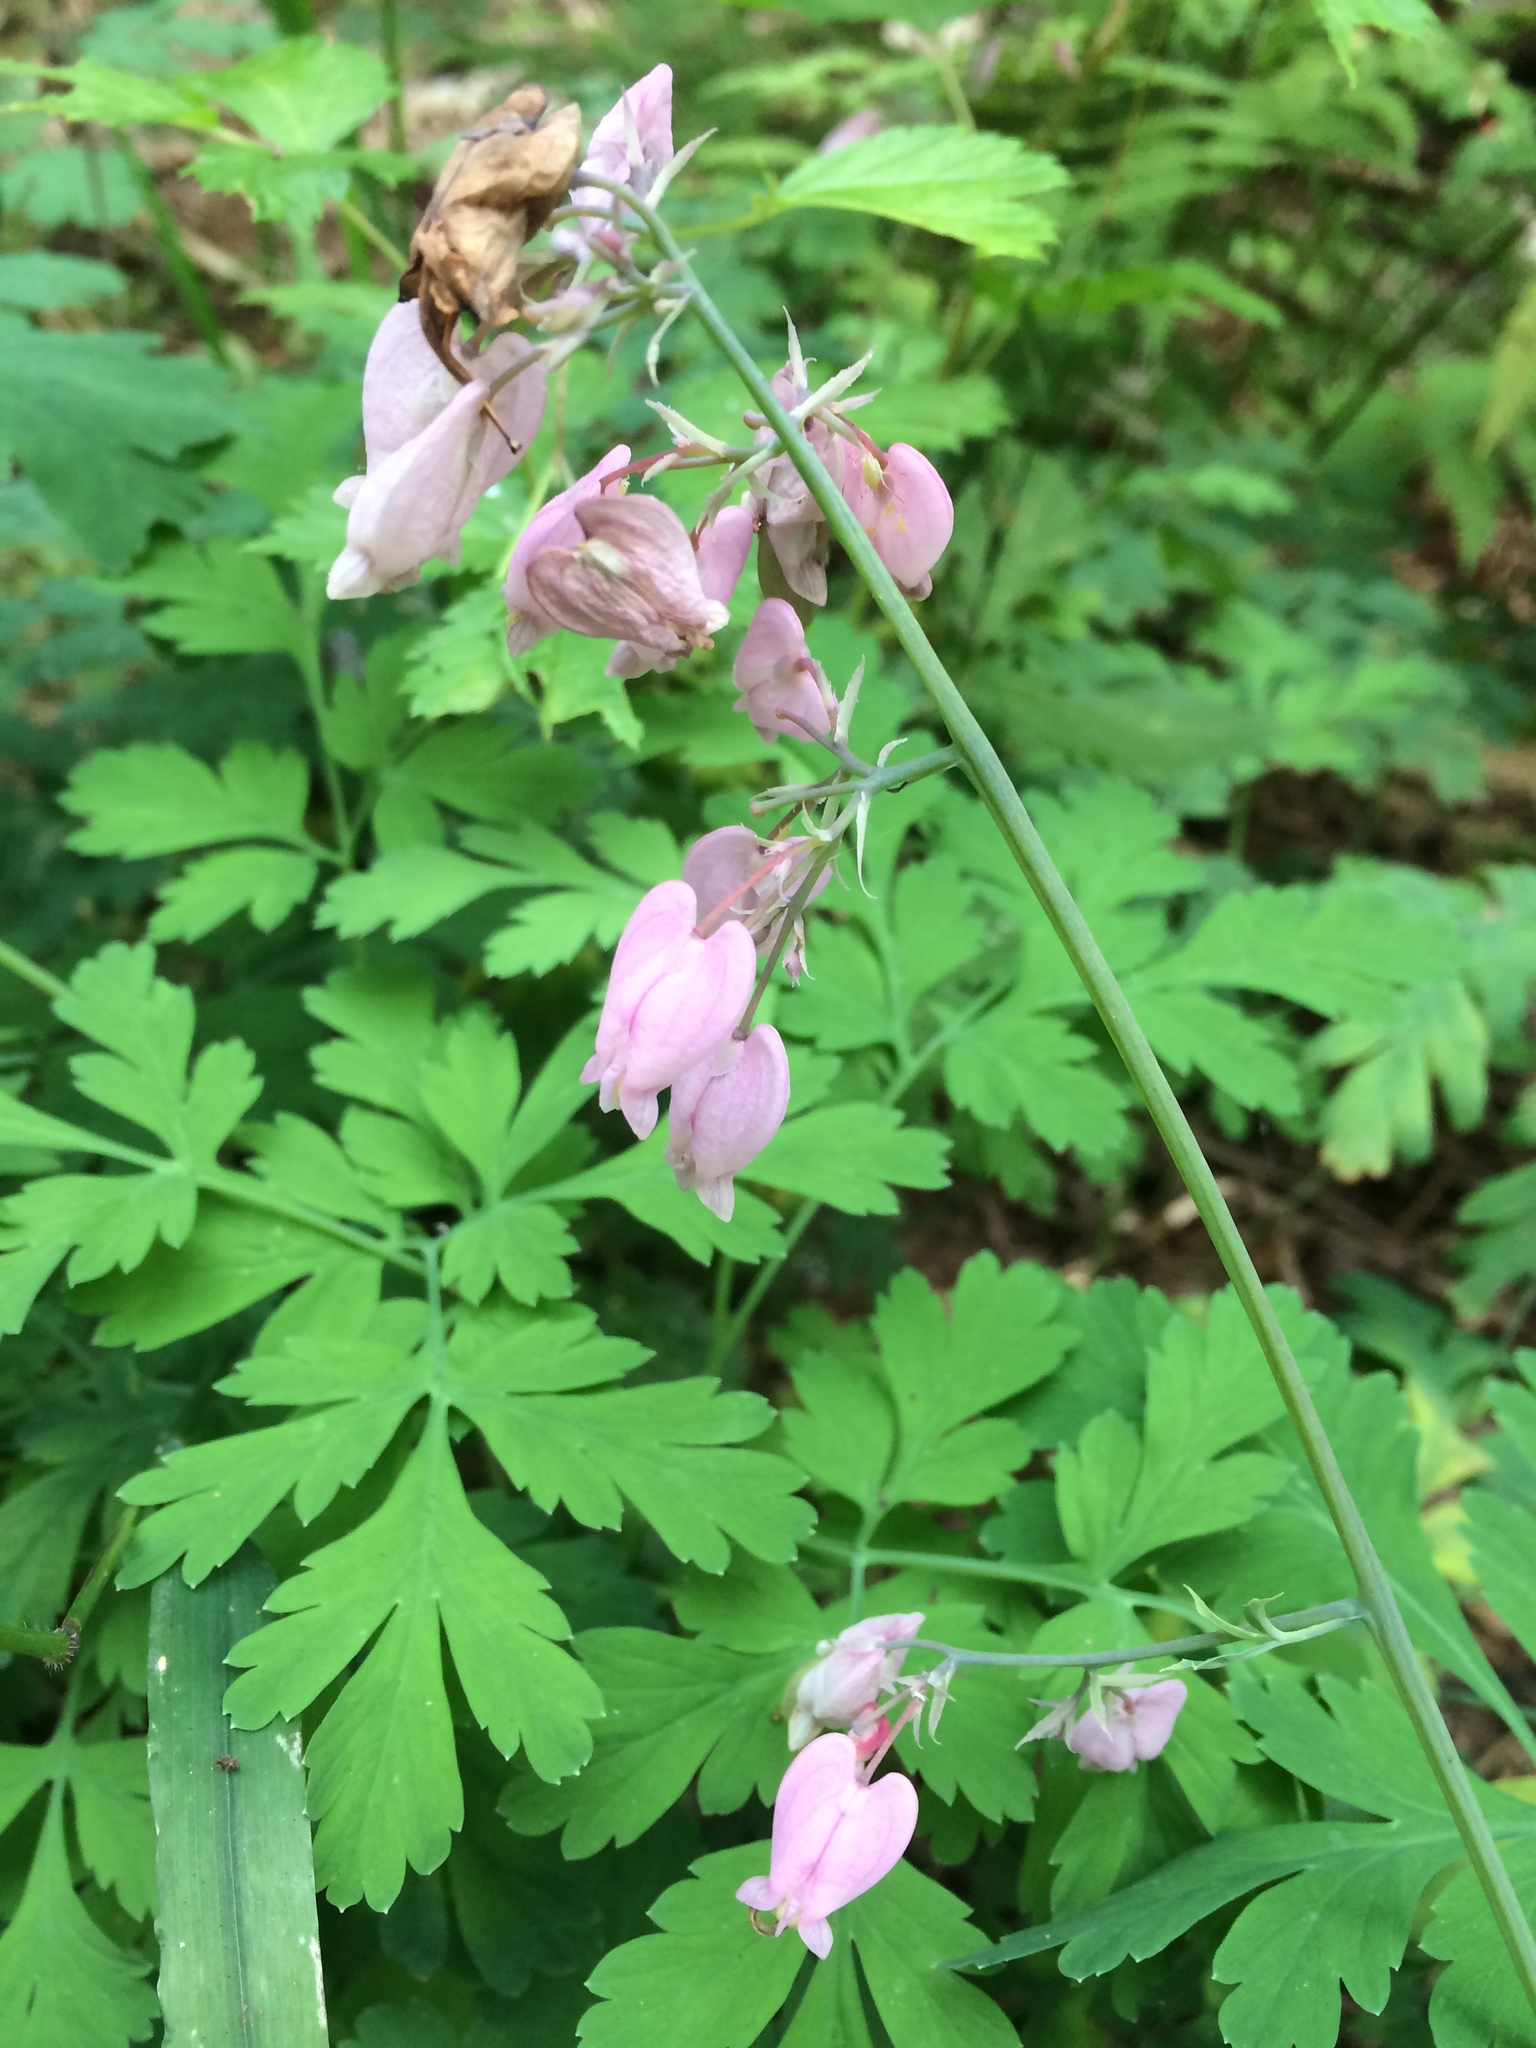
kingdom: Plantae
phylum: Tracheophyta
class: Magnoliopsida
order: Ranunculales
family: Papaveraceae
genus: Dicentra
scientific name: Dicentra formosa
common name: Bleeding-heart
